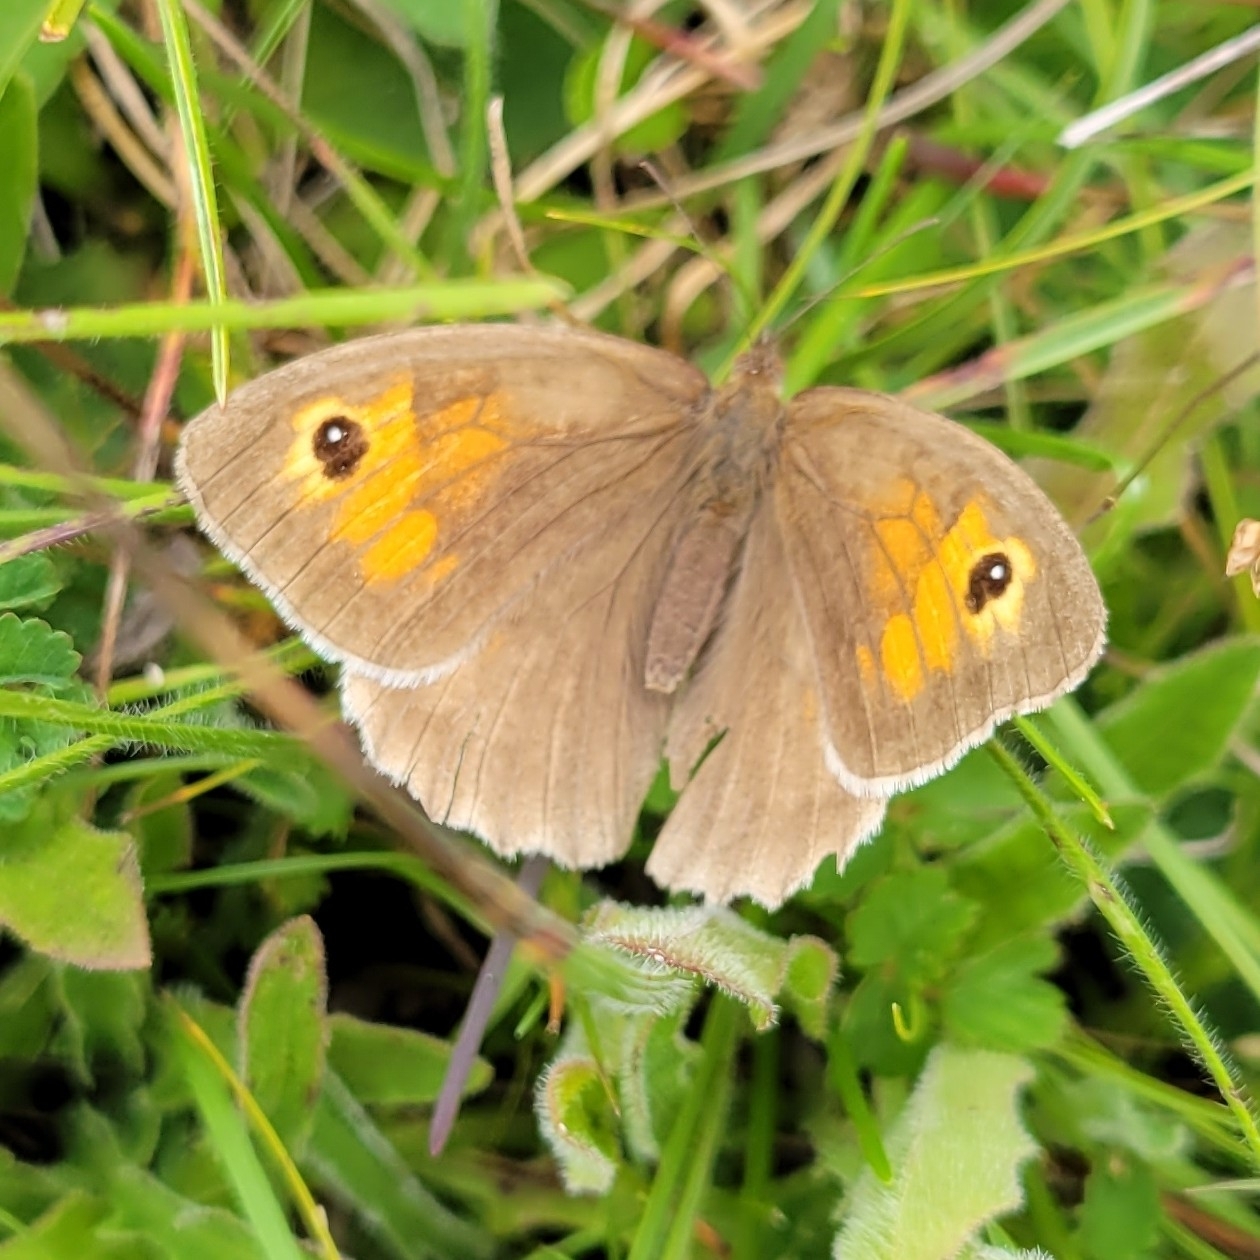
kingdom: Animalia
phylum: Arthropoda
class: Insecta
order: Lepidoptera
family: Nymphalidae
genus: Maniola
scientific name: Maniola jurtina
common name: Meadow brown
